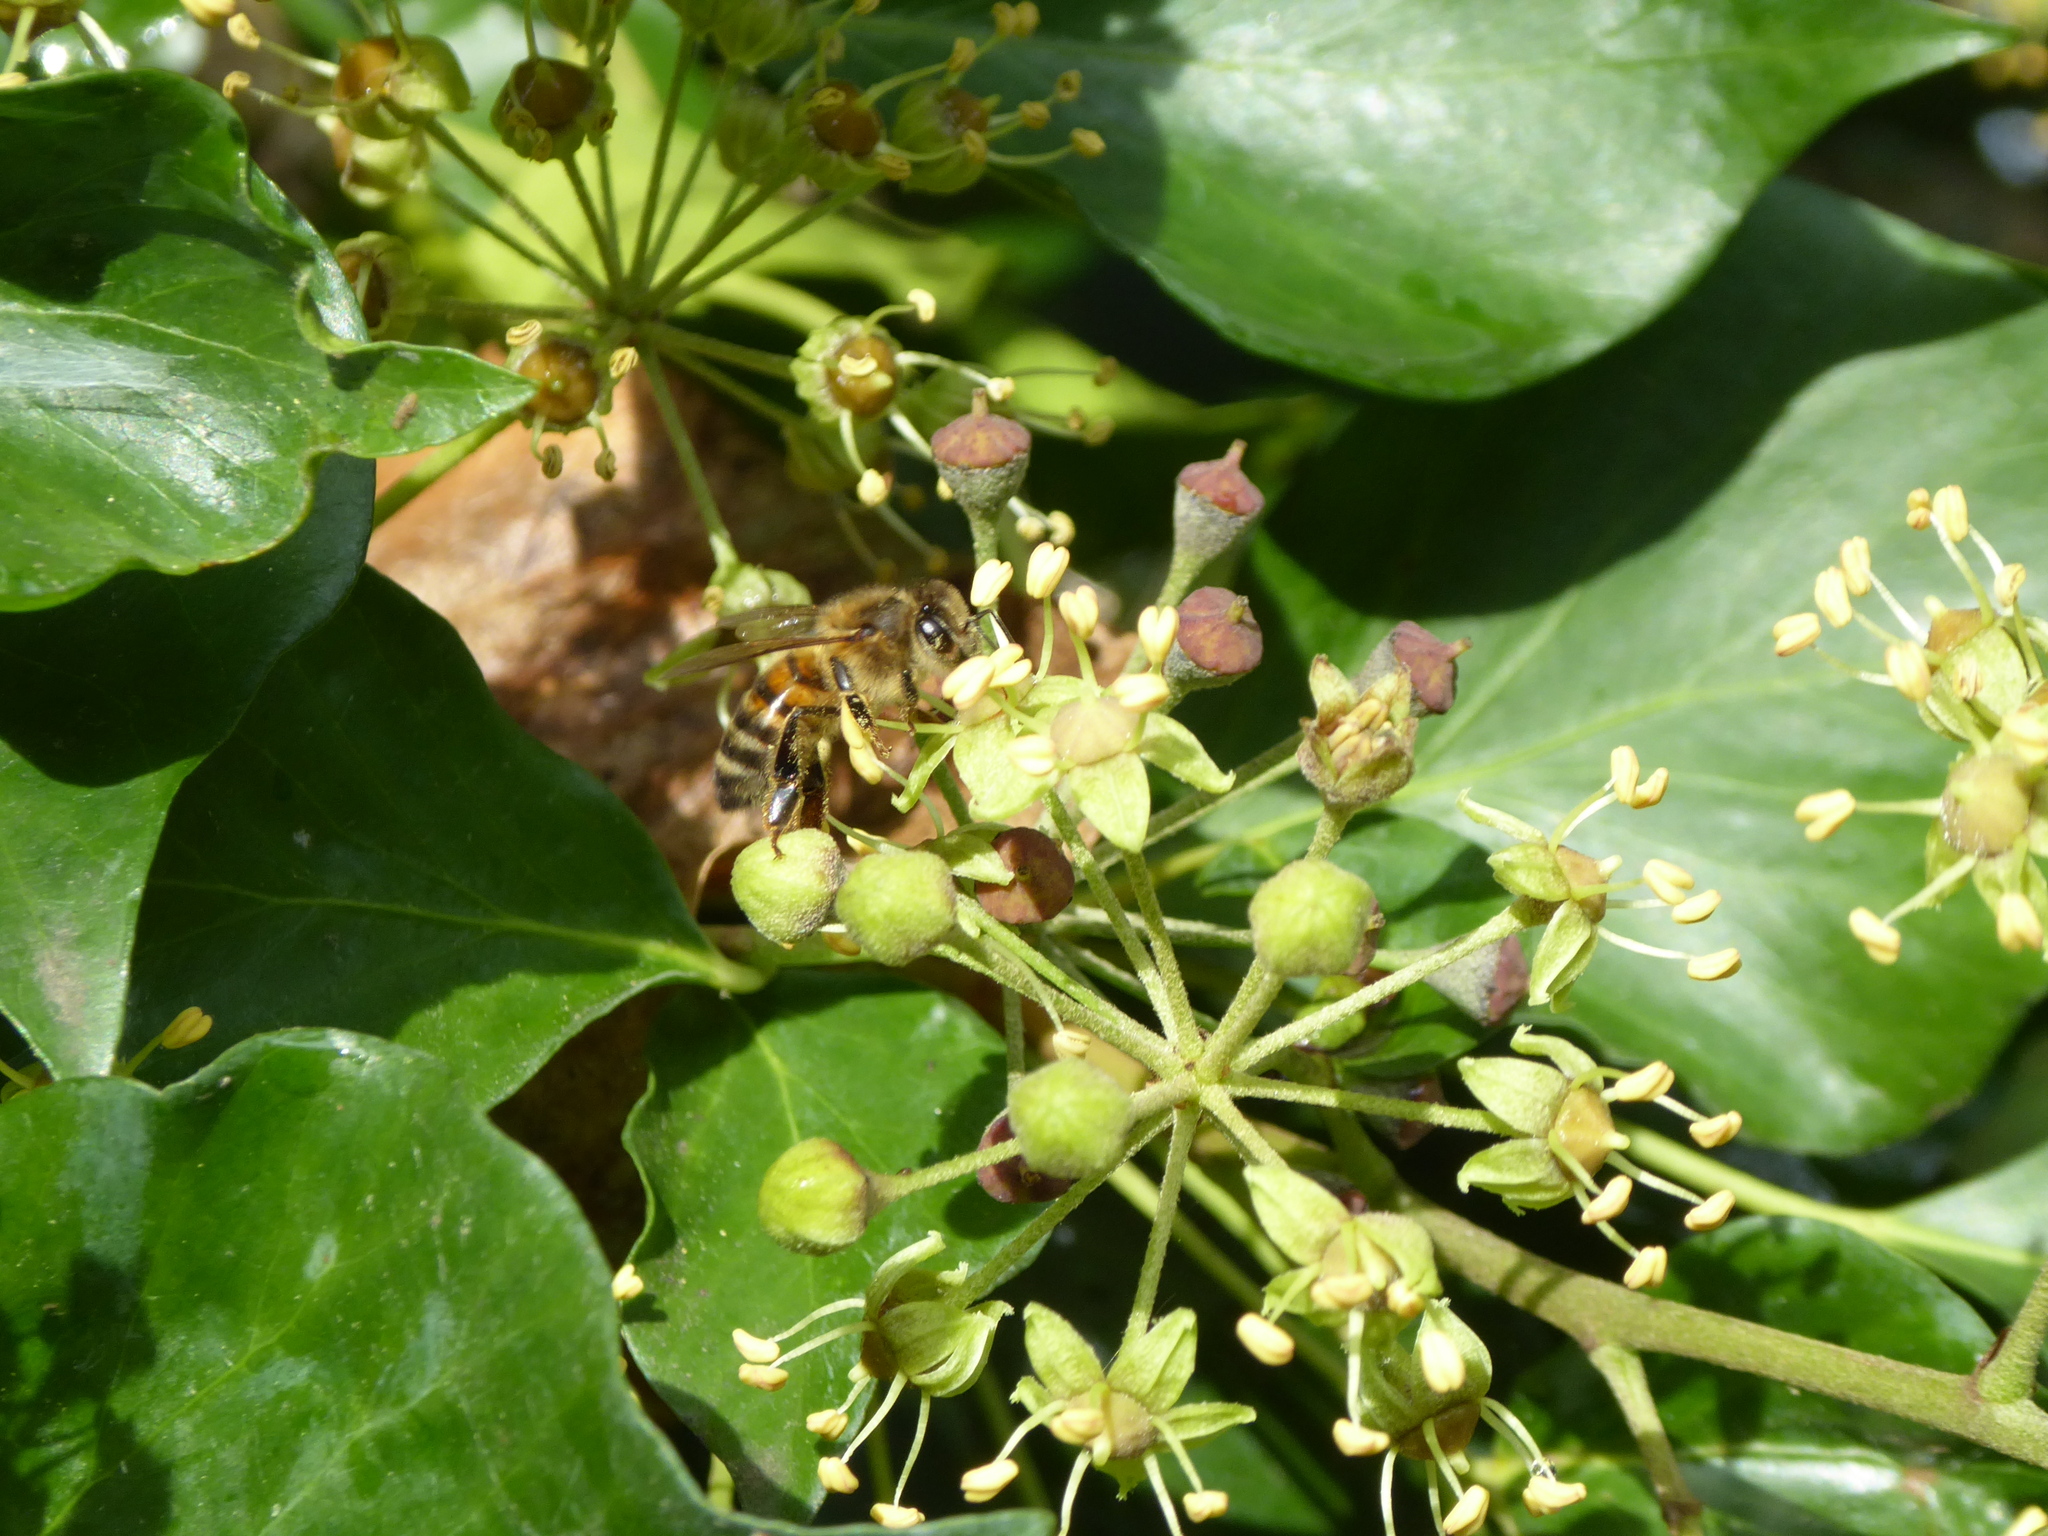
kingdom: Animalia
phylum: Arthropoda
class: Insecta
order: Hymenoptera
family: Apidae
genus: Apis
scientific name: Apis mellifera
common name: Honey bee
